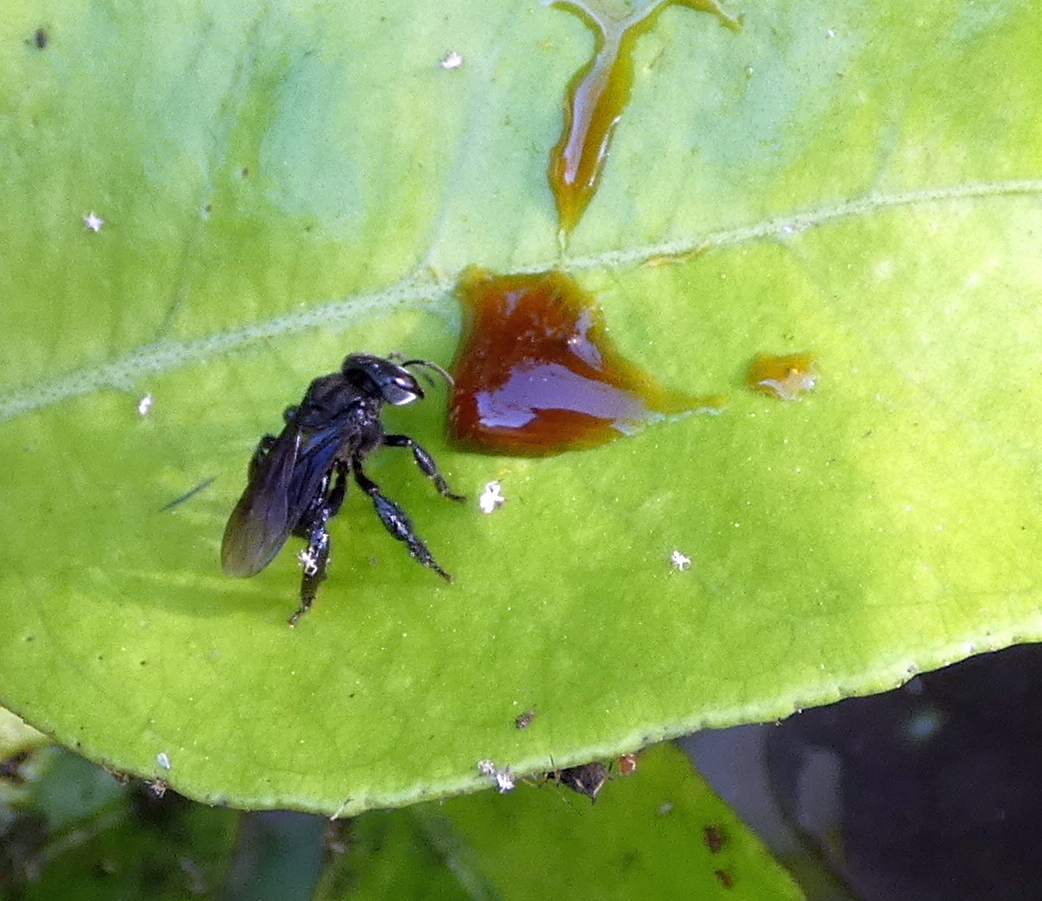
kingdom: Animalia
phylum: Arthropoda
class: Insecta
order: Hymenoptera
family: Apidae
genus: Trigona
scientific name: Trigona spinipes
